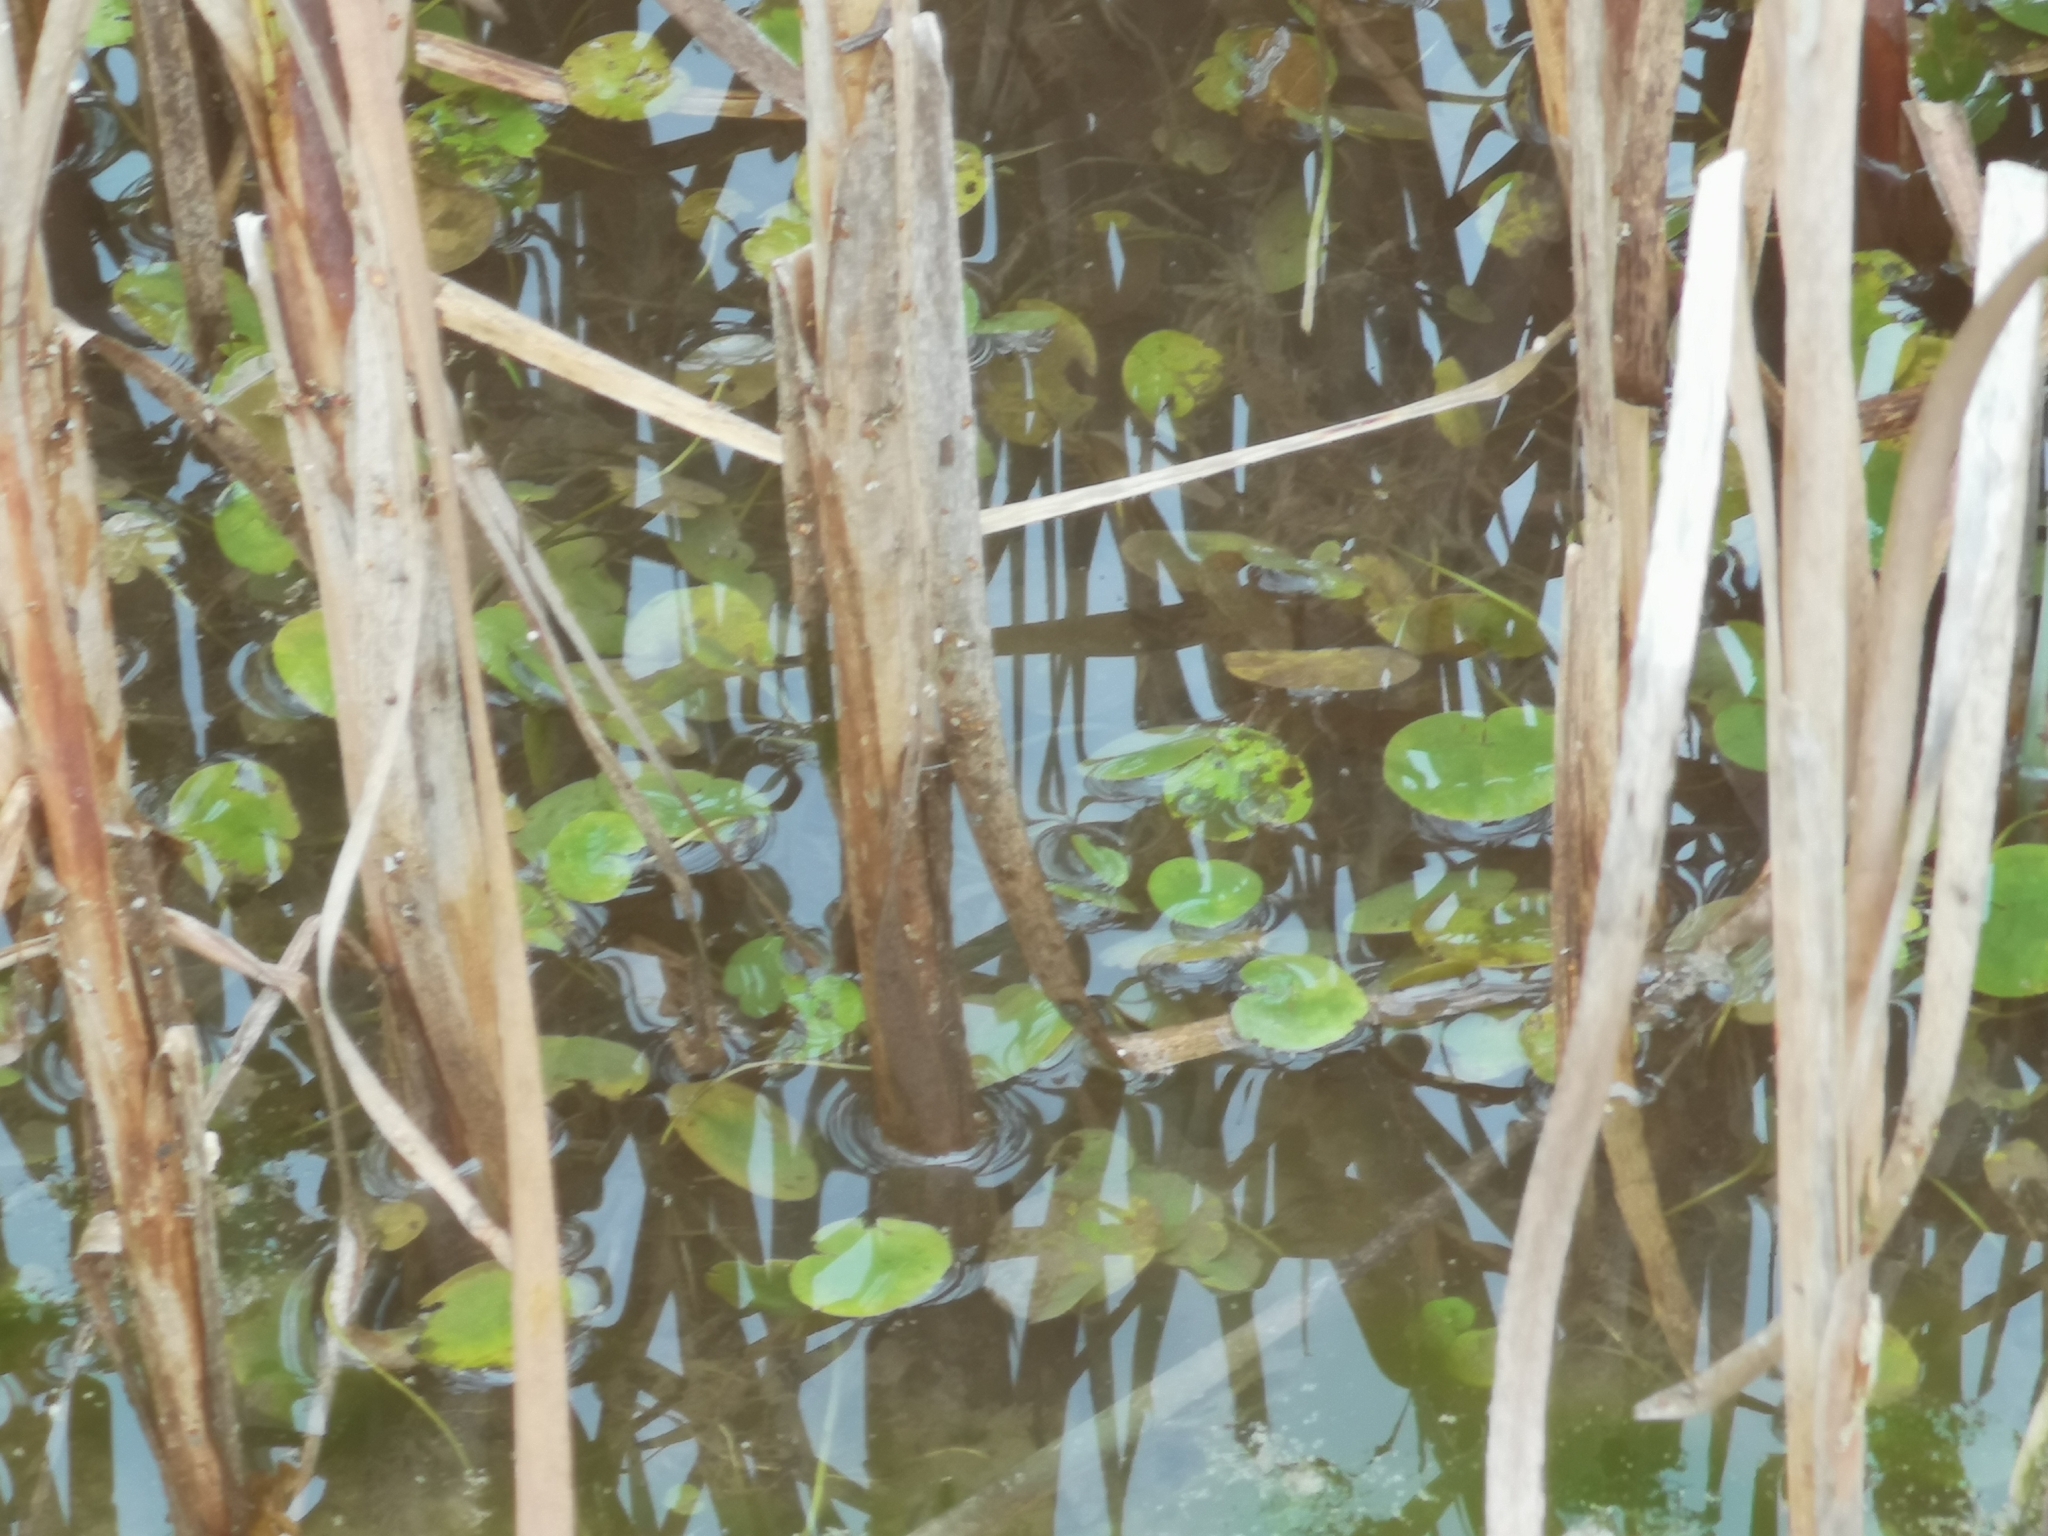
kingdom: Plantae
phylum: Tracheophyta
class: Liliopsida
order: Alismatales
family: Hydrocharitaceae
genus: Hydrocharis
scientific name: Hydrocharis morsus-ranae
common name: Frogbit
